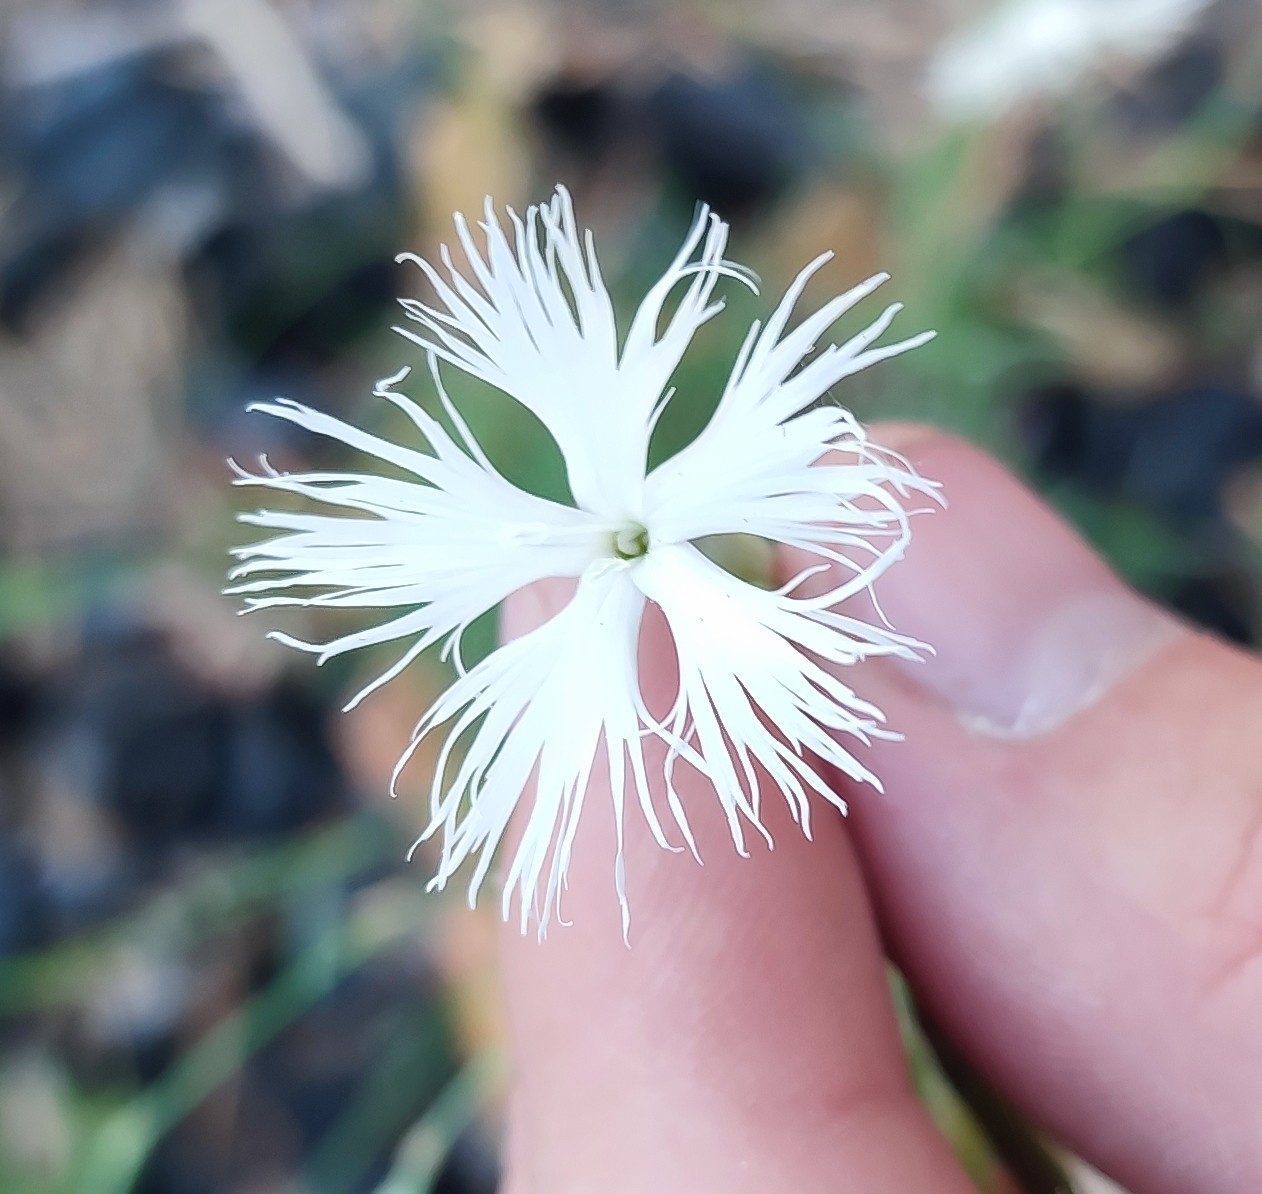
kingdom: Plantae
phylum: Tracheophyta
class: Magnoliopsida
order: Caryophyllales
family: Caryophyllaceae
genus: Dianthus
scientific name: Dianthus arenarius
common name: Stone pink
